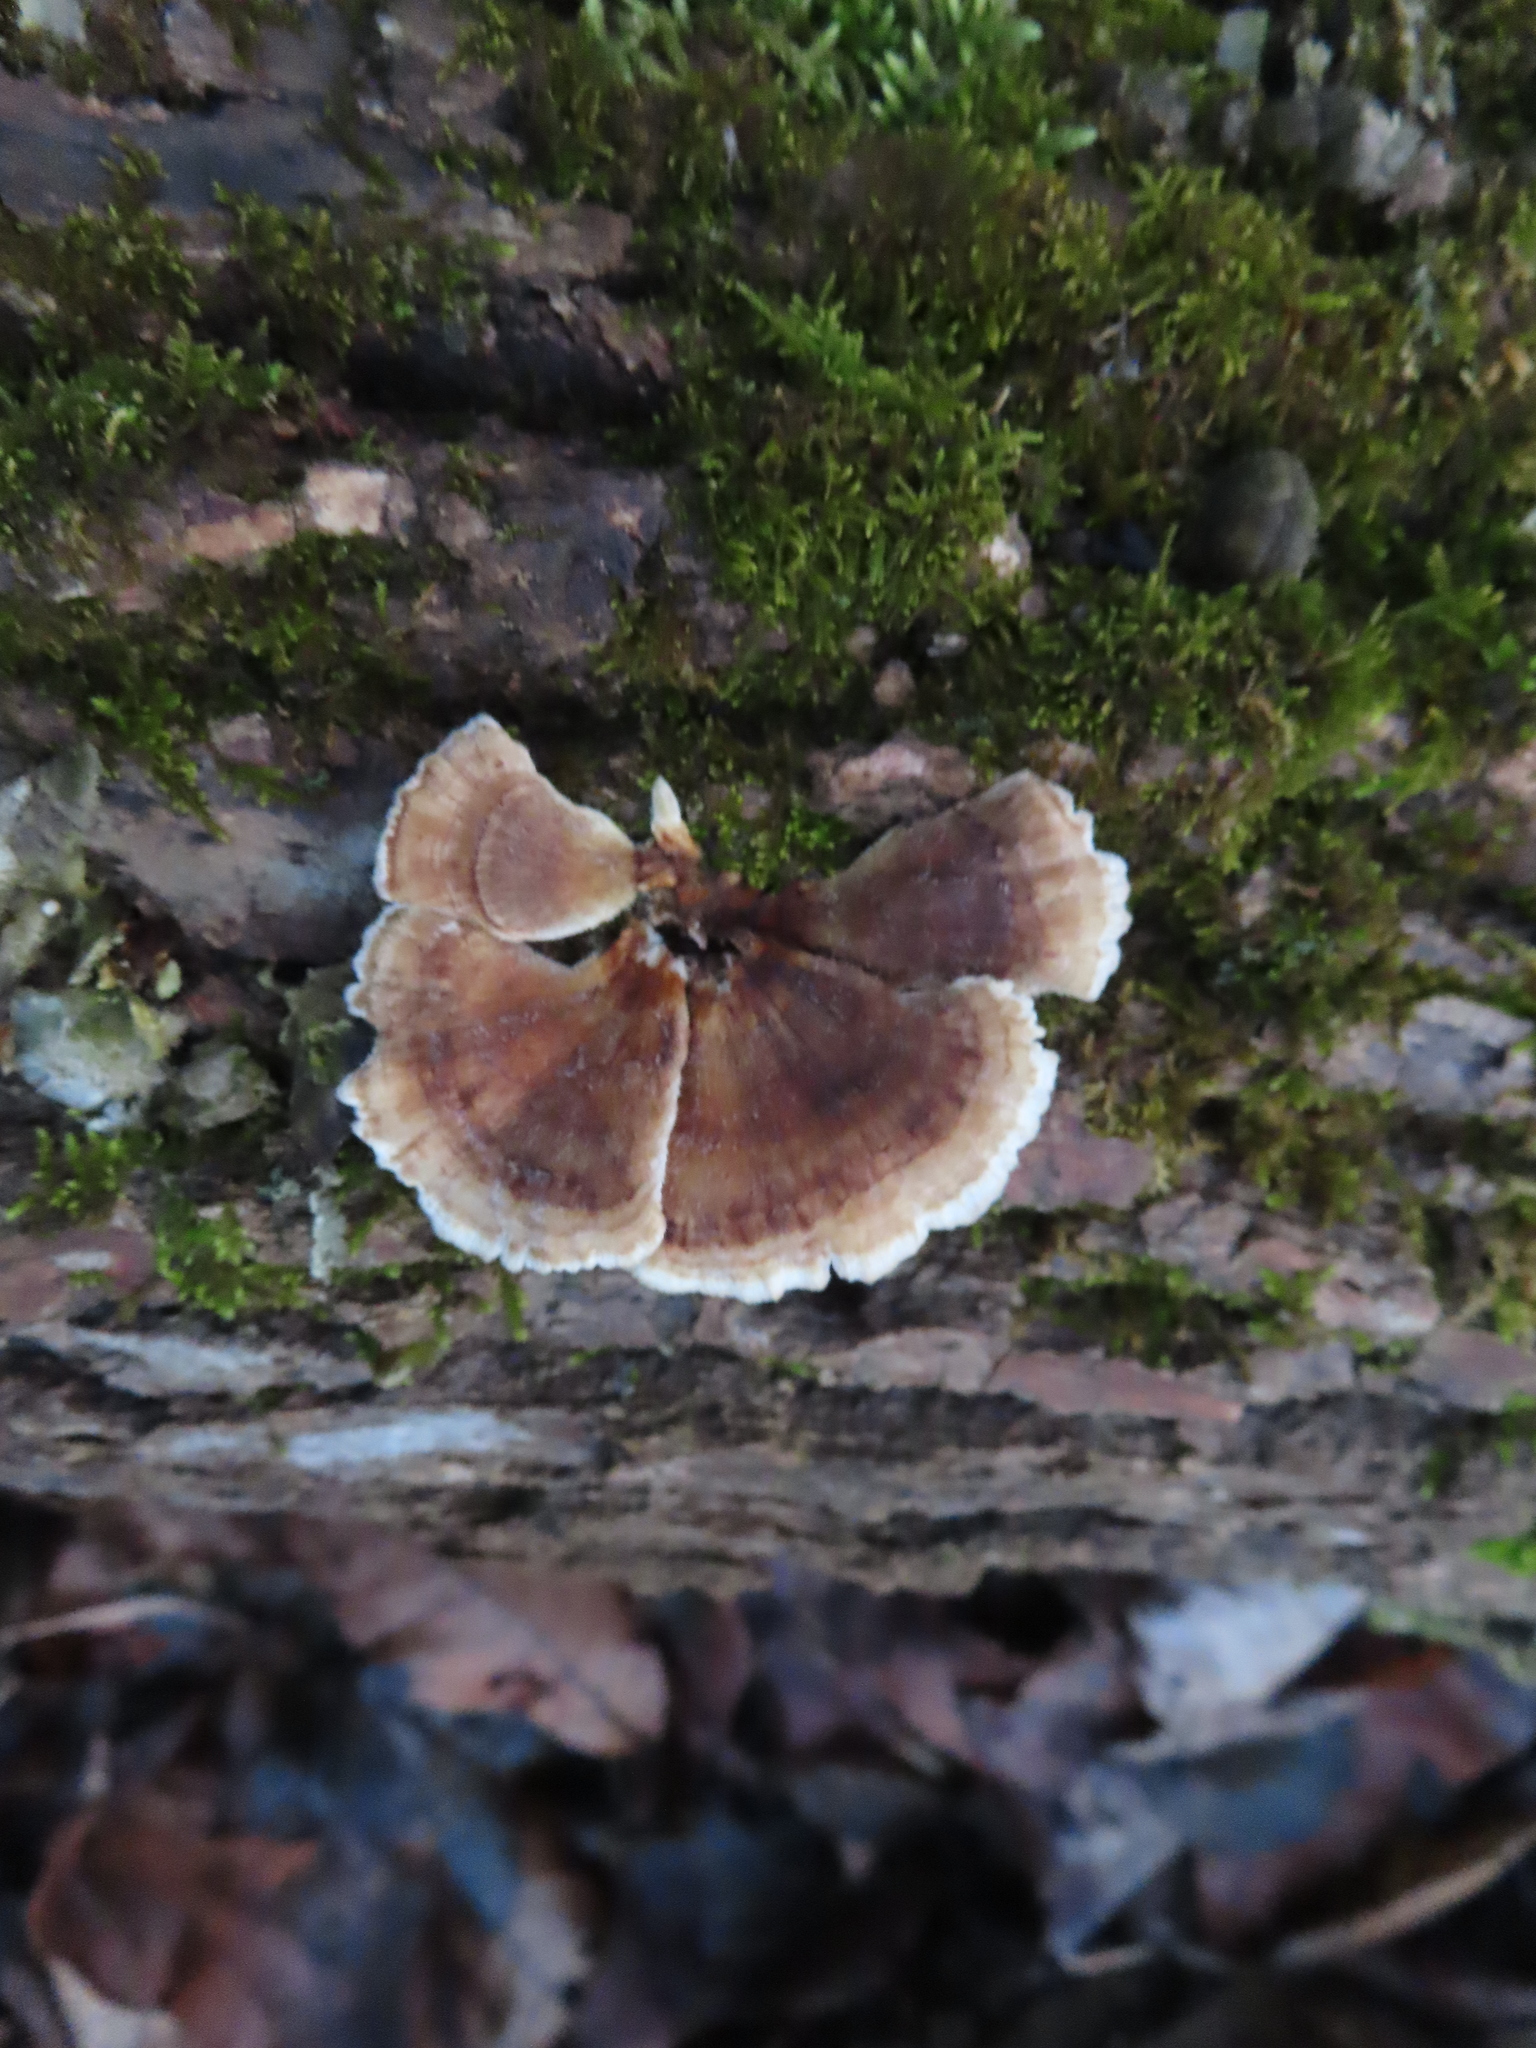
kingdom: Fungi
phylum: Basidiomycota
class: Agaricomycetes
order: Polyporales
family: Polyporaceae
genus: Trametes
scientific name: Trametes versicolor
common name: Turkeytail
